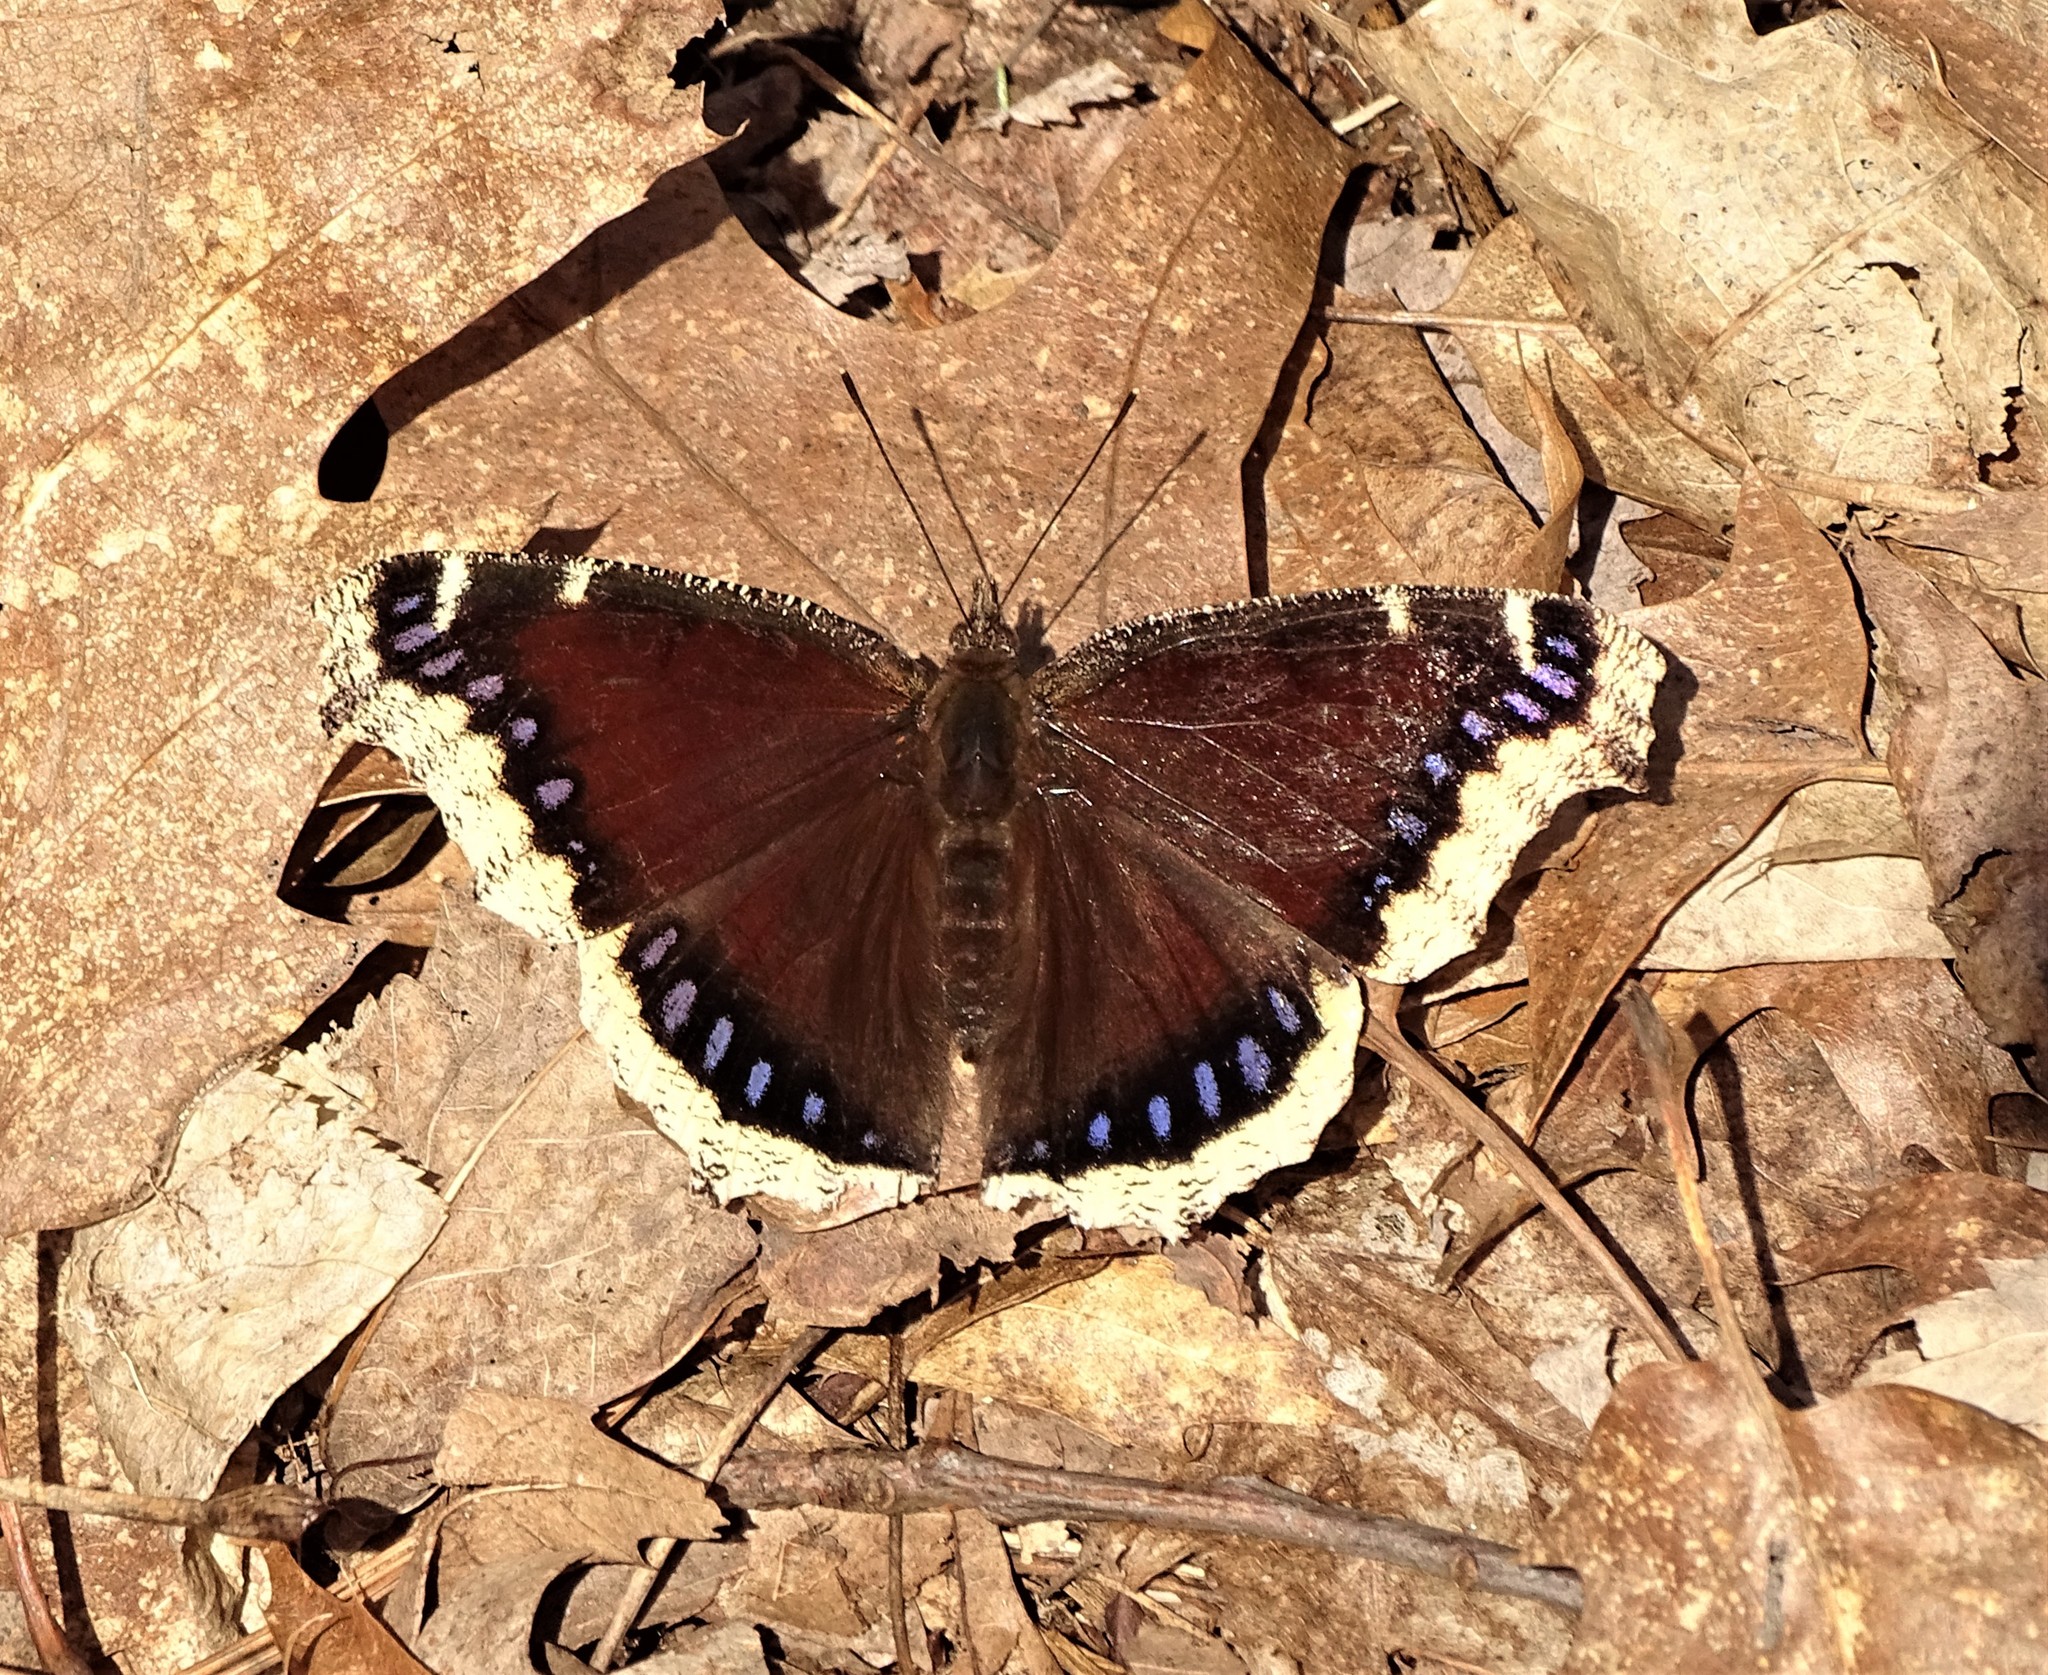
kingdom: Animalia
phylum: Arthropoda
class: Insecta
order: Lepidoptera
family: Nymphalidae
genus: Nymphalis
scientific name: Nymphalis antiopa
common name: Camberwell beauty
